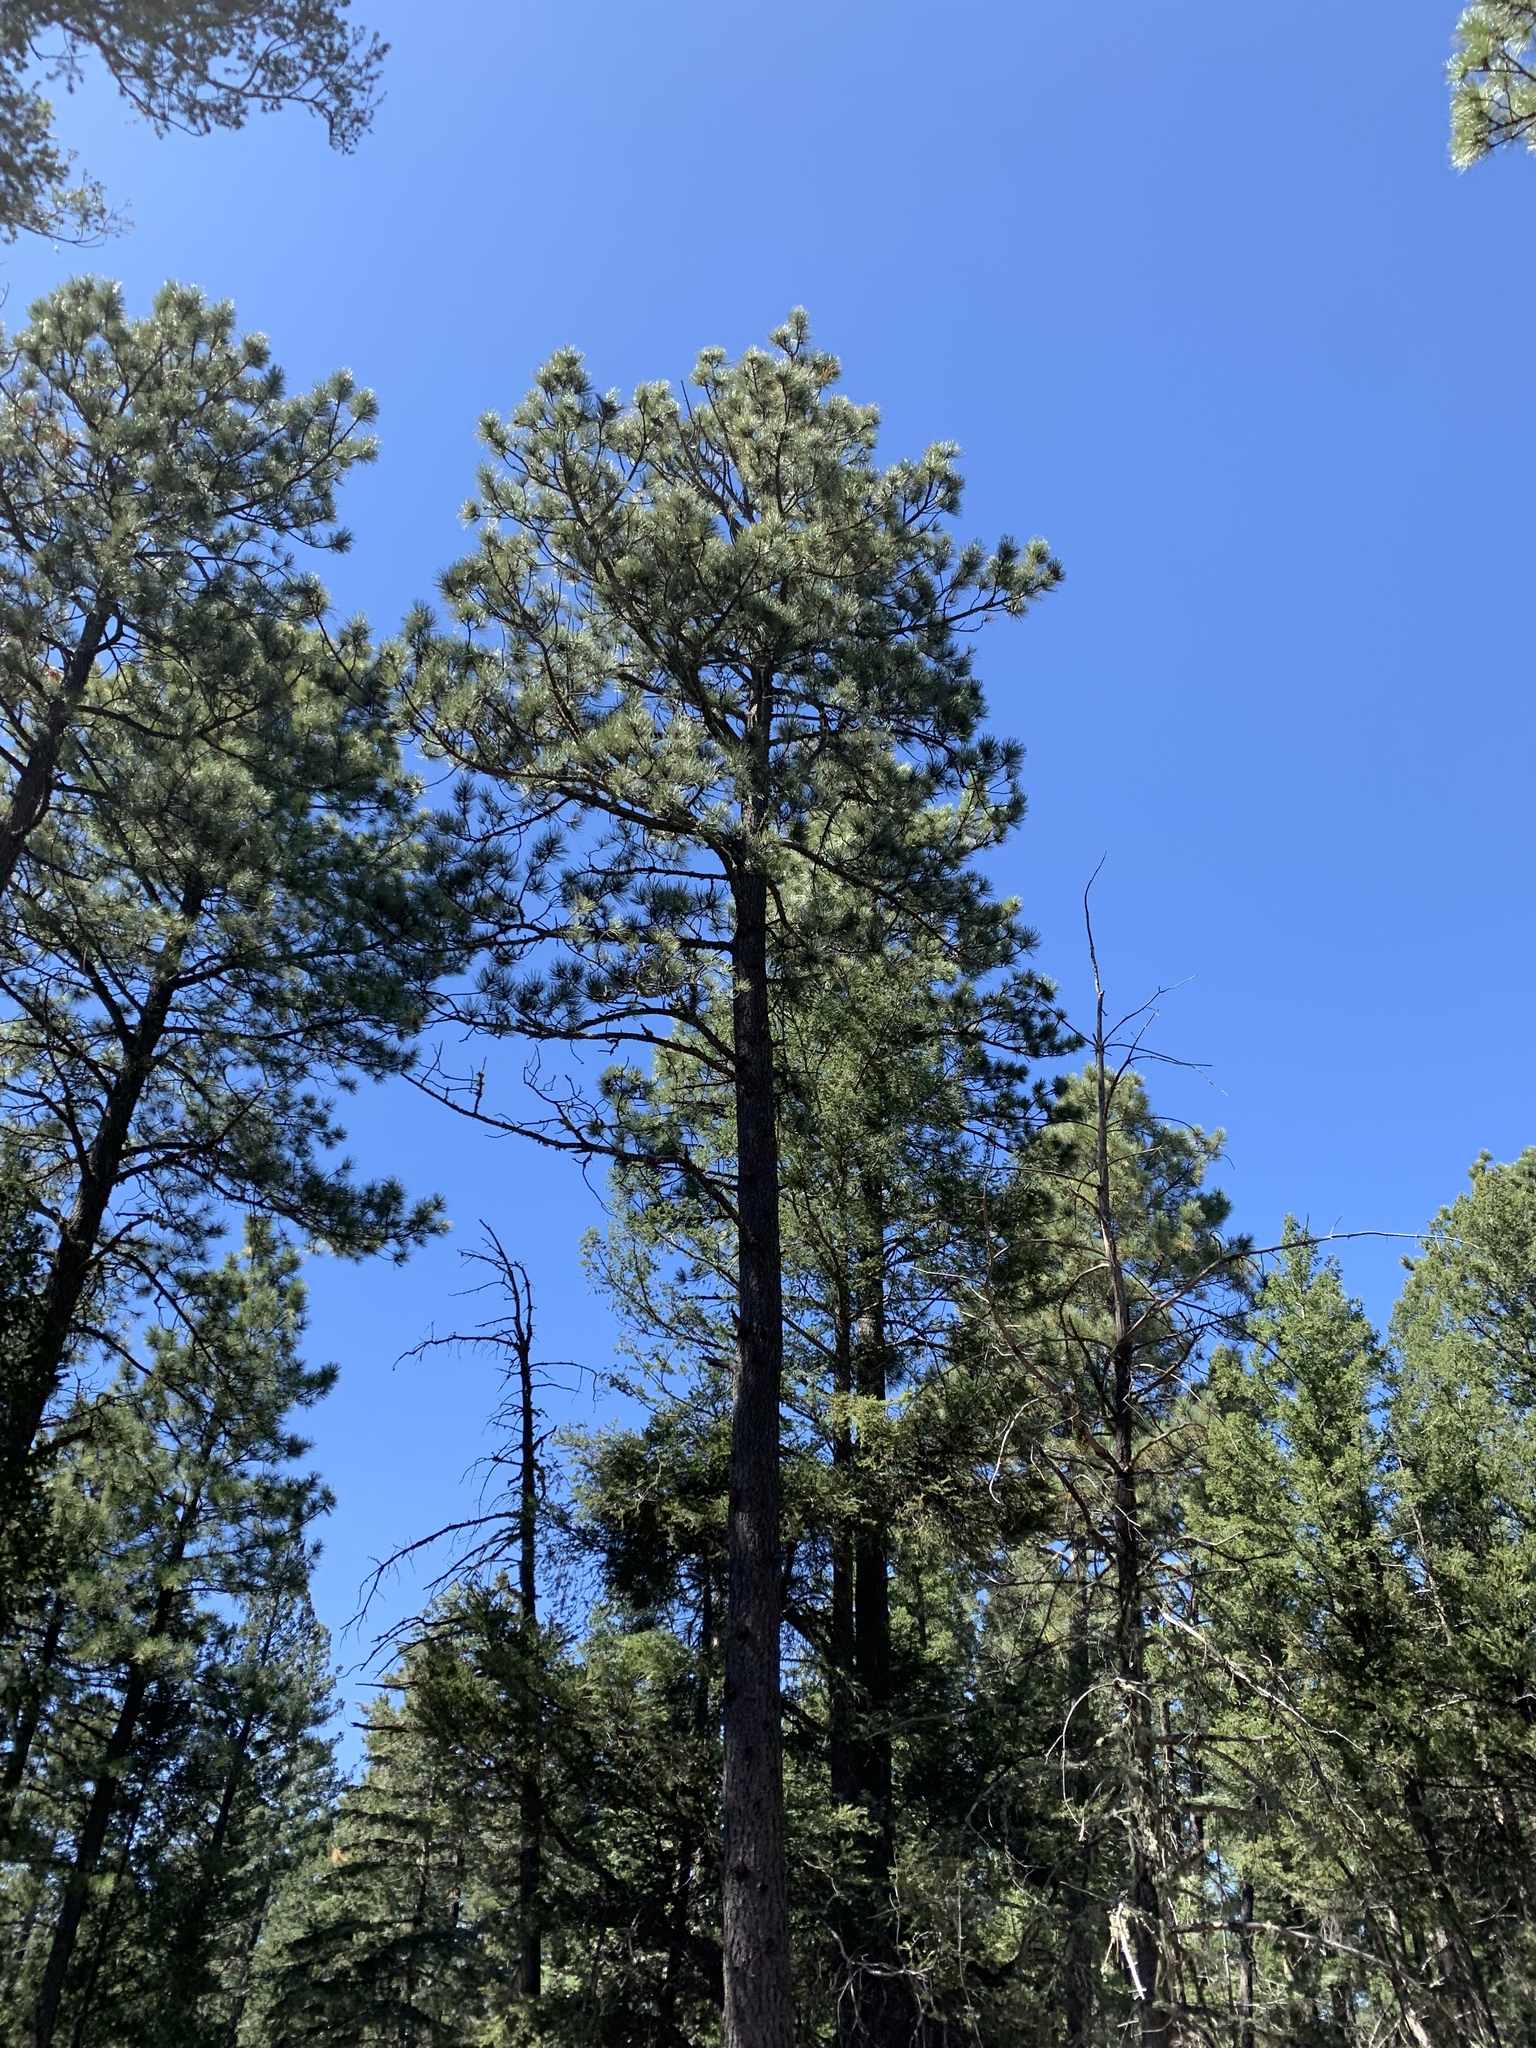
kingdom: Plantae
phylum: Tracheophyta
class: Pinopsida
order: Pinales
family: Pinaceae
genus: Pinus
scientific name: Pinus ponderosa
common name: Western yellow-pine
